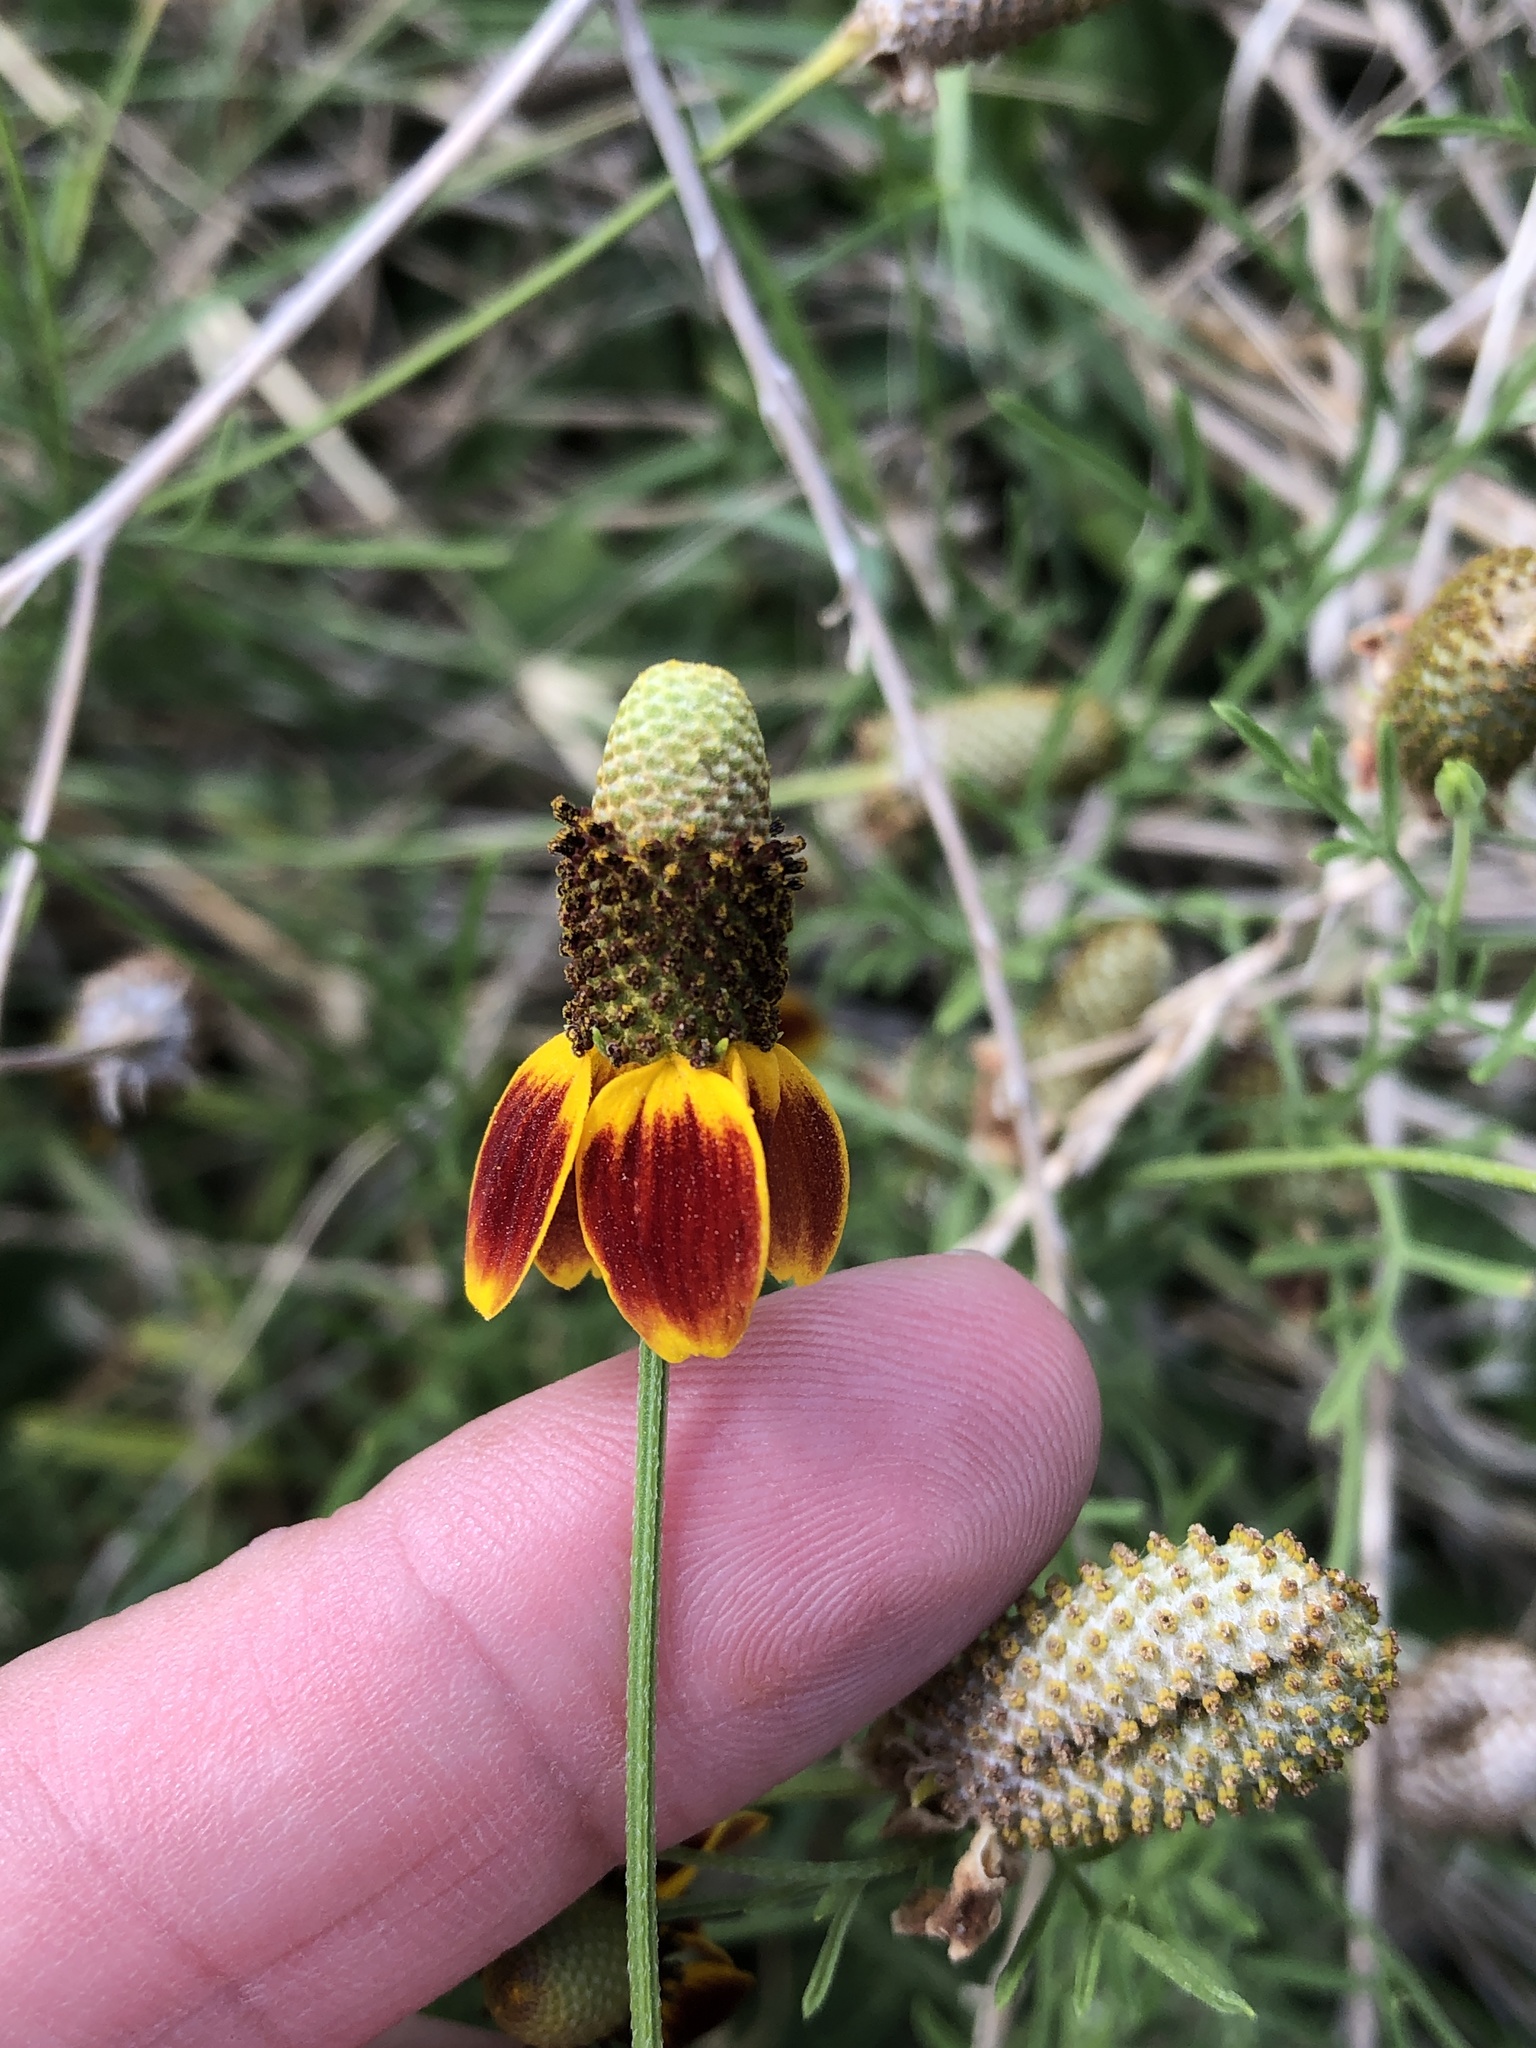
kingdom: Plantae
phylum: Tracheophyta
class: Magnoliopsida
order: Asterales
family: Asteraceae
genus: Ratibida
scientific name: Ratibida columnifera
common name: Prairie coneflower
